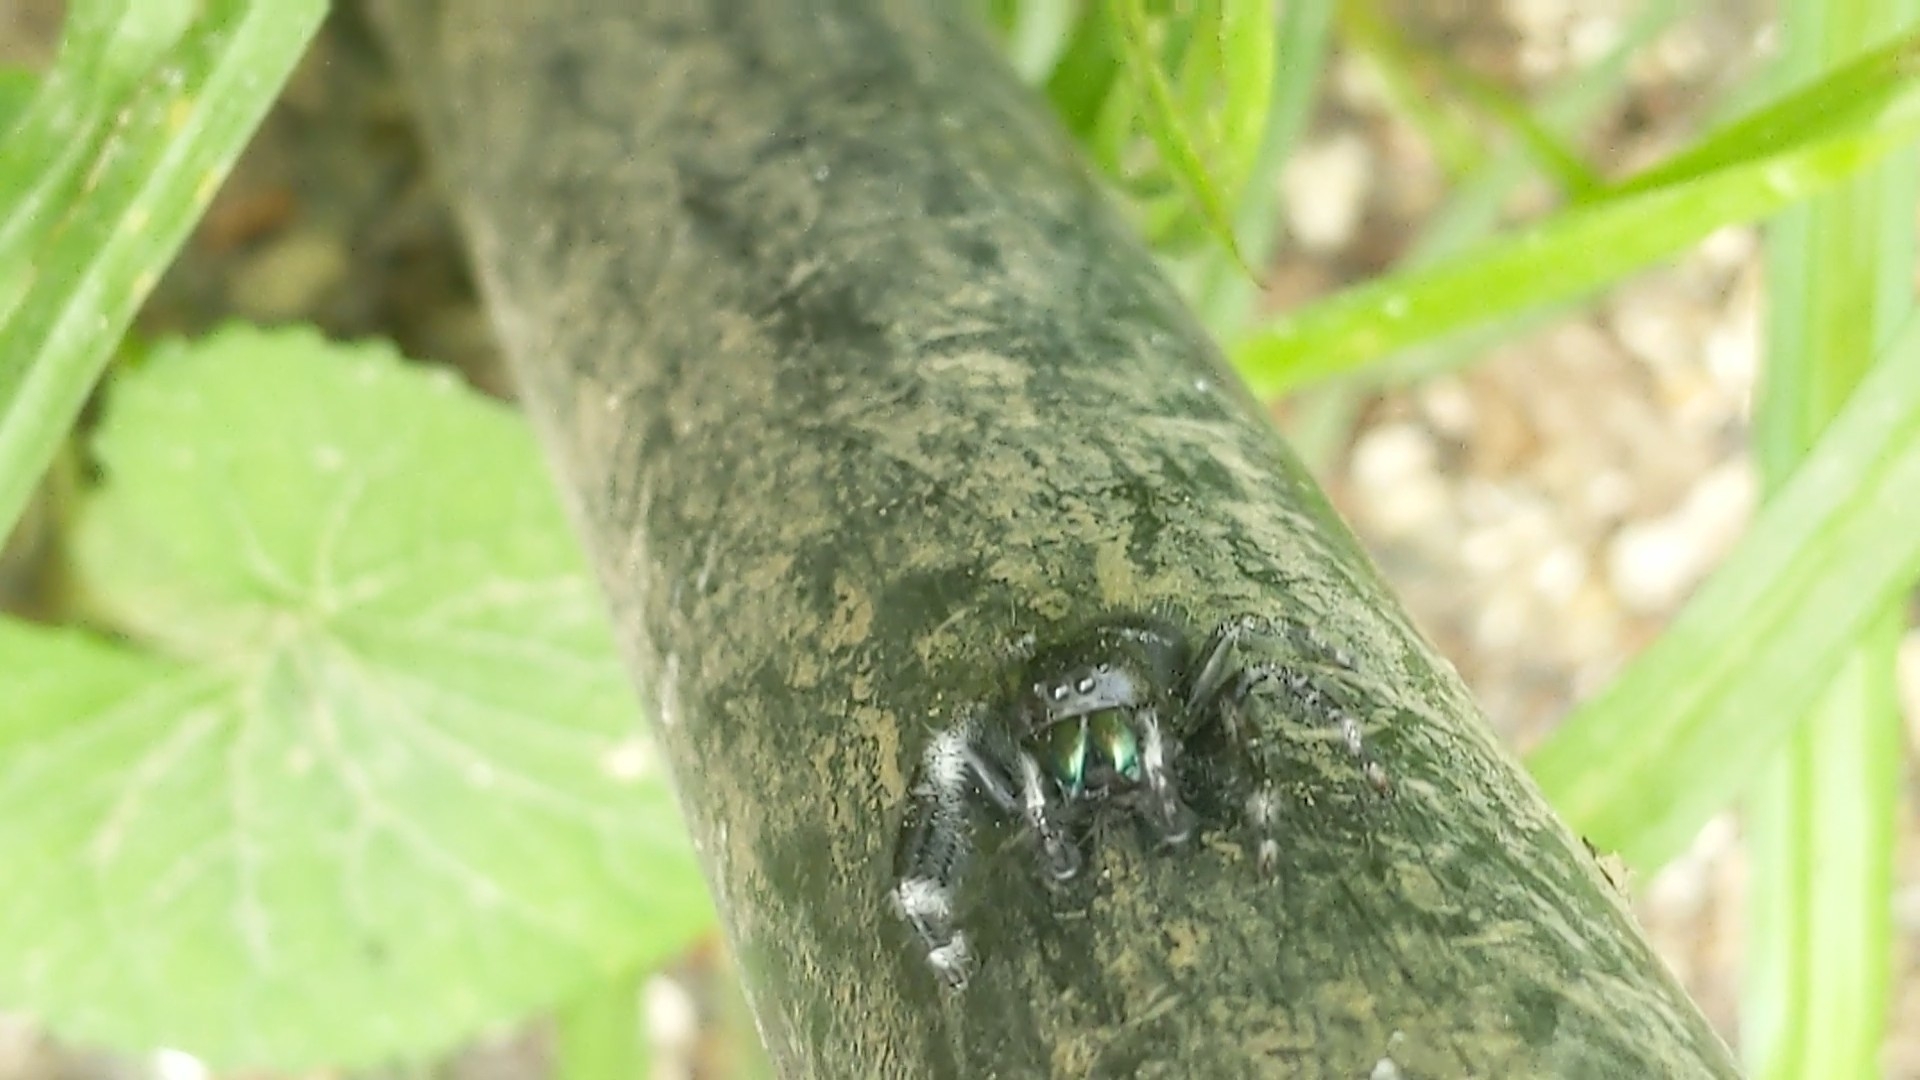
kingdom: Animalia
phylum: Arthropoda
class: Arachnida
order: Araneae
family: Salticidae
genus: Phidippus
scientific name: Phidippus audax
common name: Bold jumper
